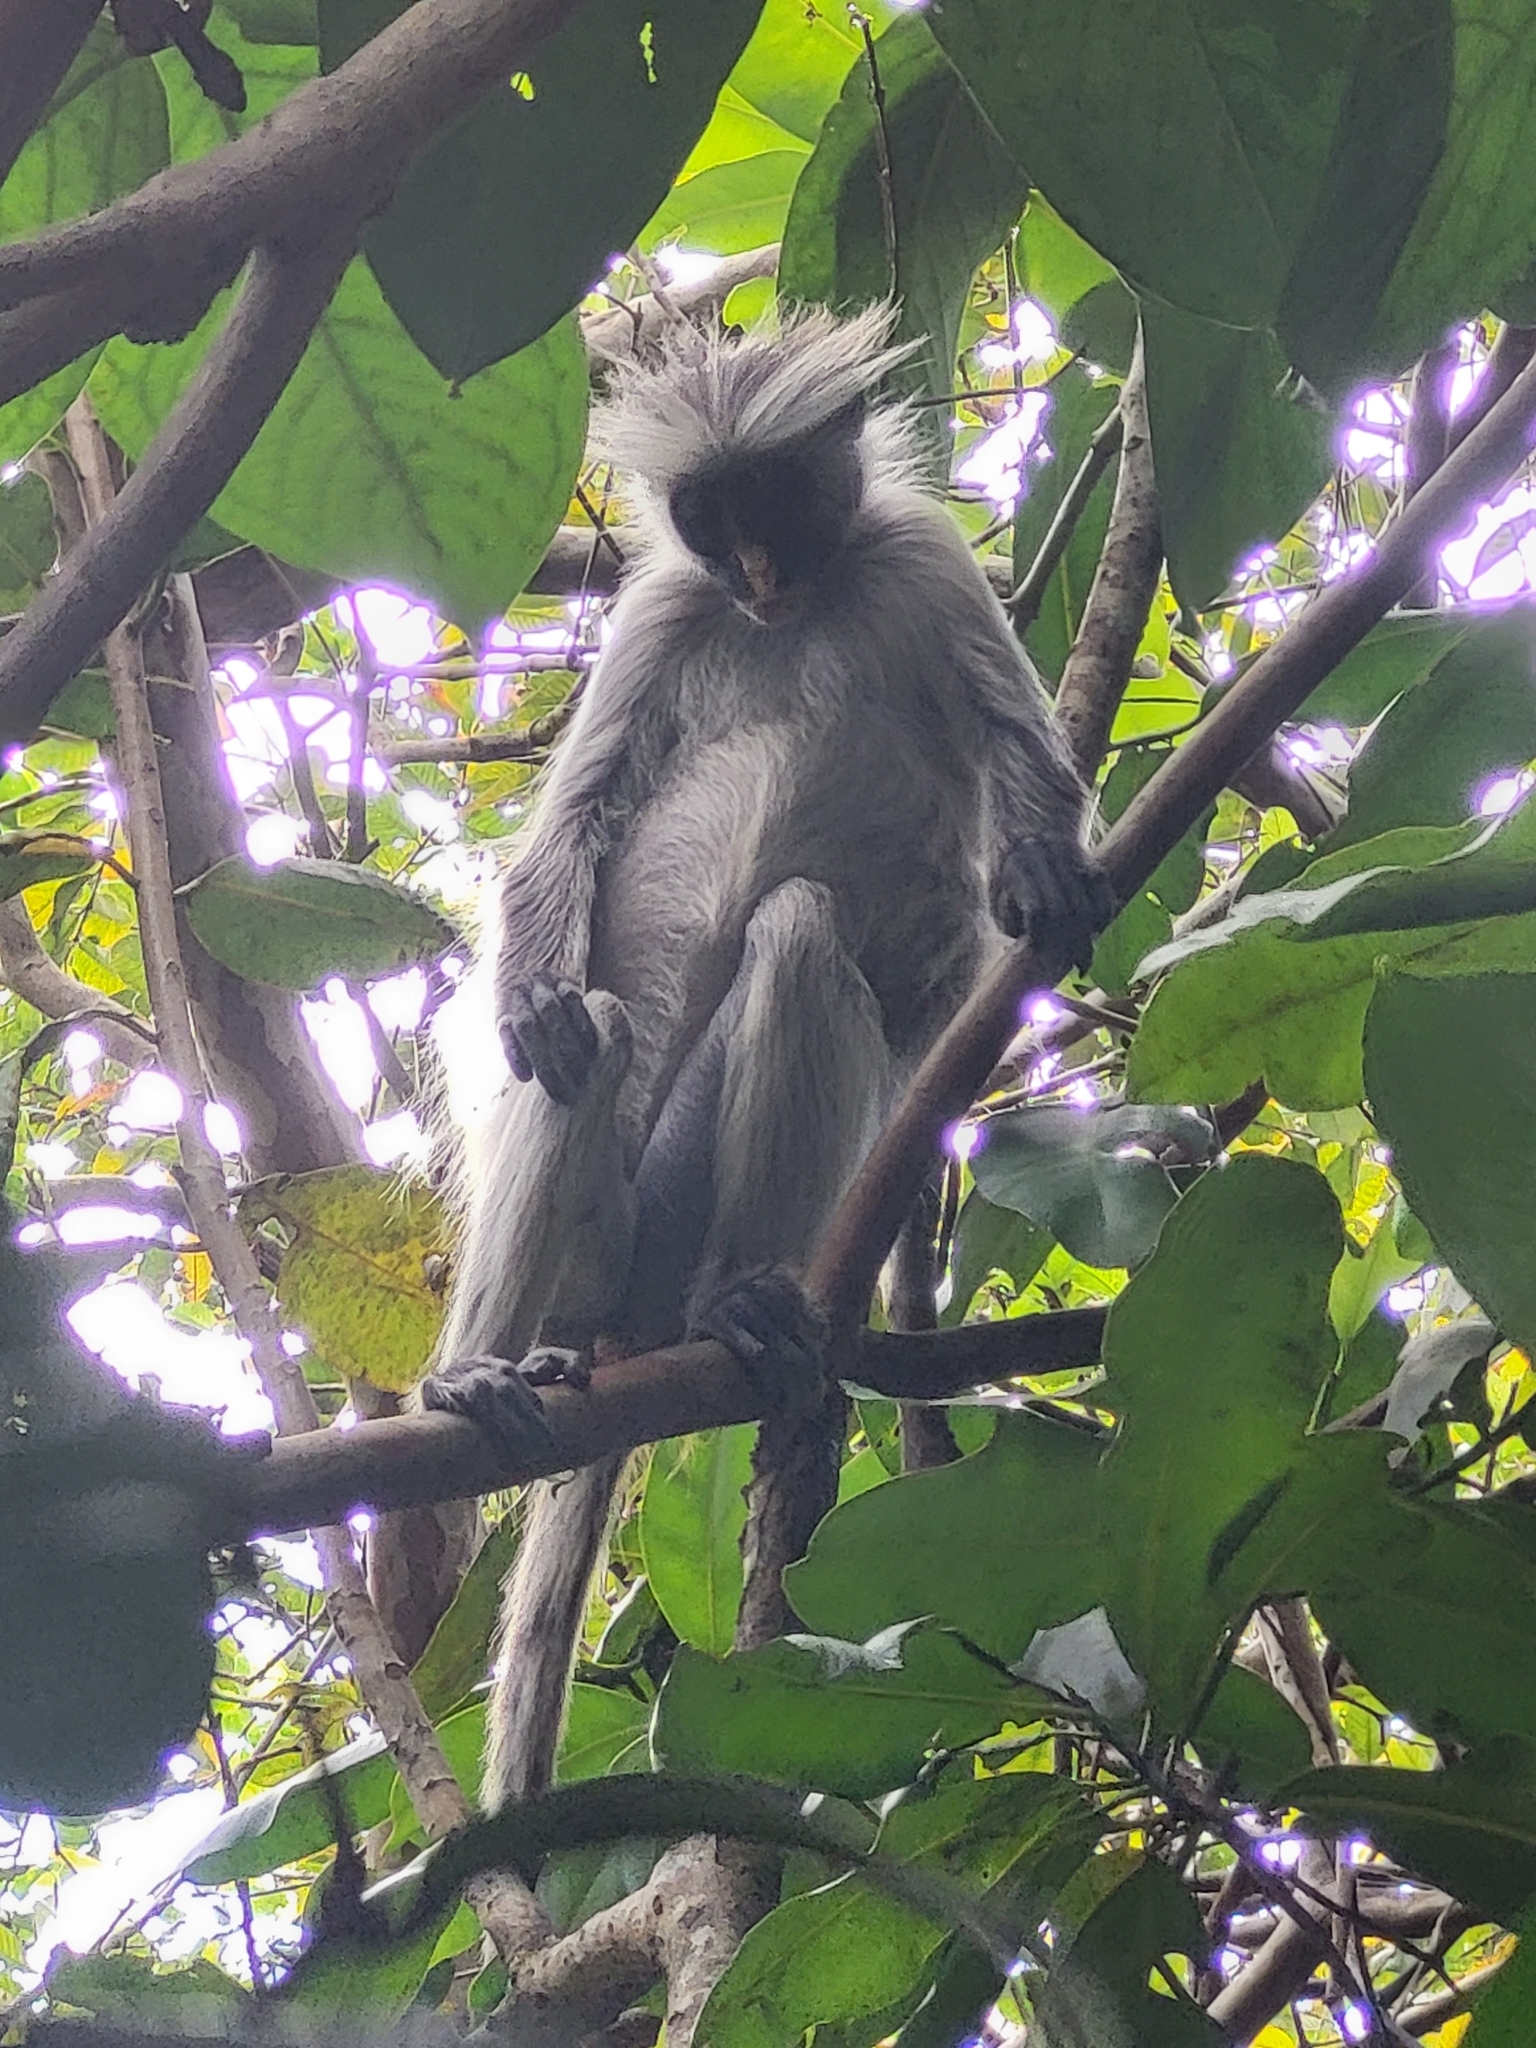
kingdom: Animalia
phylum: Chordata
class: Mammalia
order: Primates
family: Cercopithecidae
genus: Piliocolobus
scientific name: Piliocolobus kirkii
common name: Zanzibar red colobus
